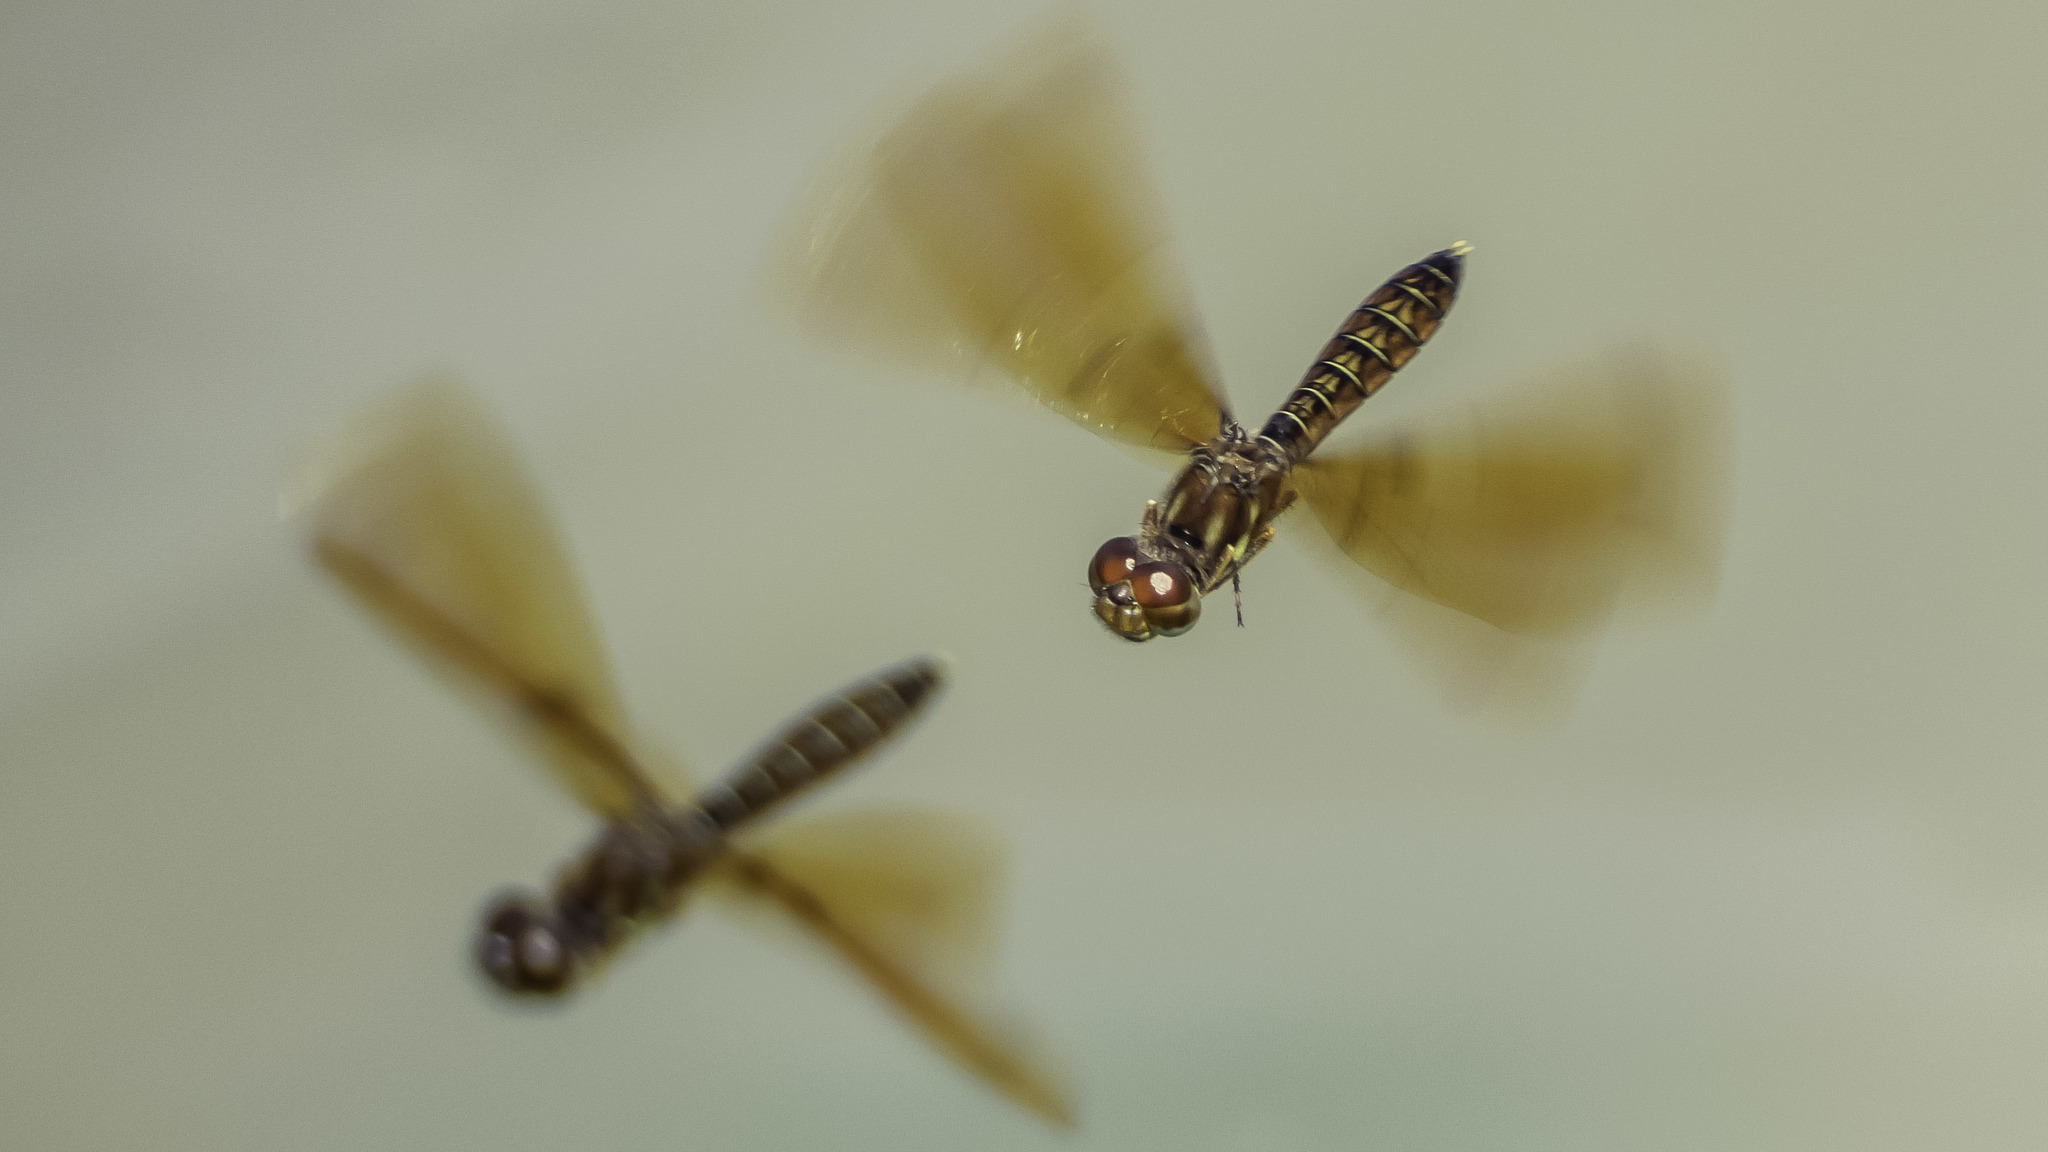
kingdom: Animalia
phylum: Arthropoda
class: Insecta
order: Odonata
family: Libellulidae
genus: Perithemis
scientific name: Perithemis tenera
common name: Eastern amberwing
